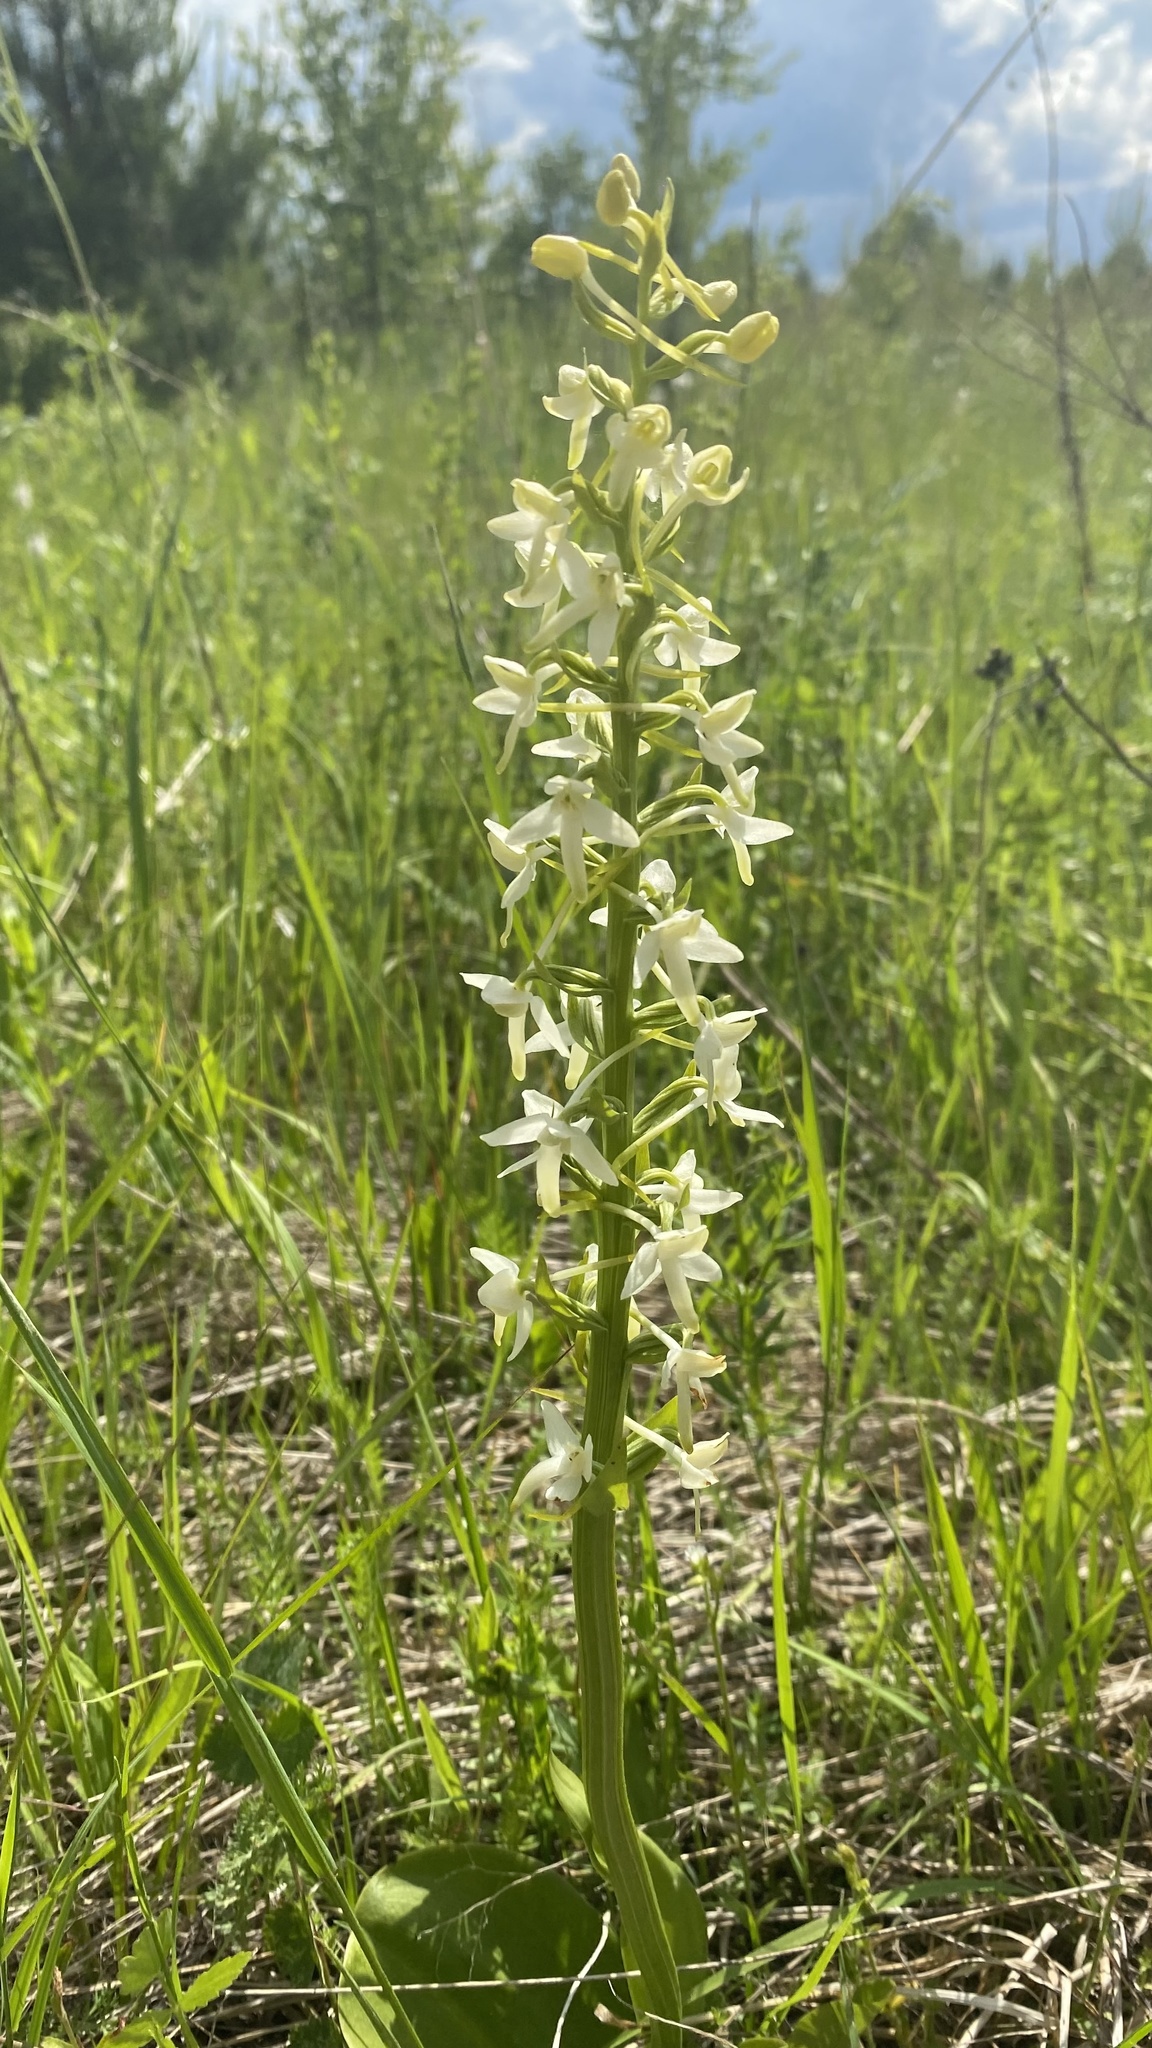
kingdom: Plantae
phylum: Tracheophyta
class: Liliopsida
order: Asparagales
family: Orchidaceae
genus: Platanthera
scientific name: Platanthera bifolia
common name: Lesser butterfly-orchid
